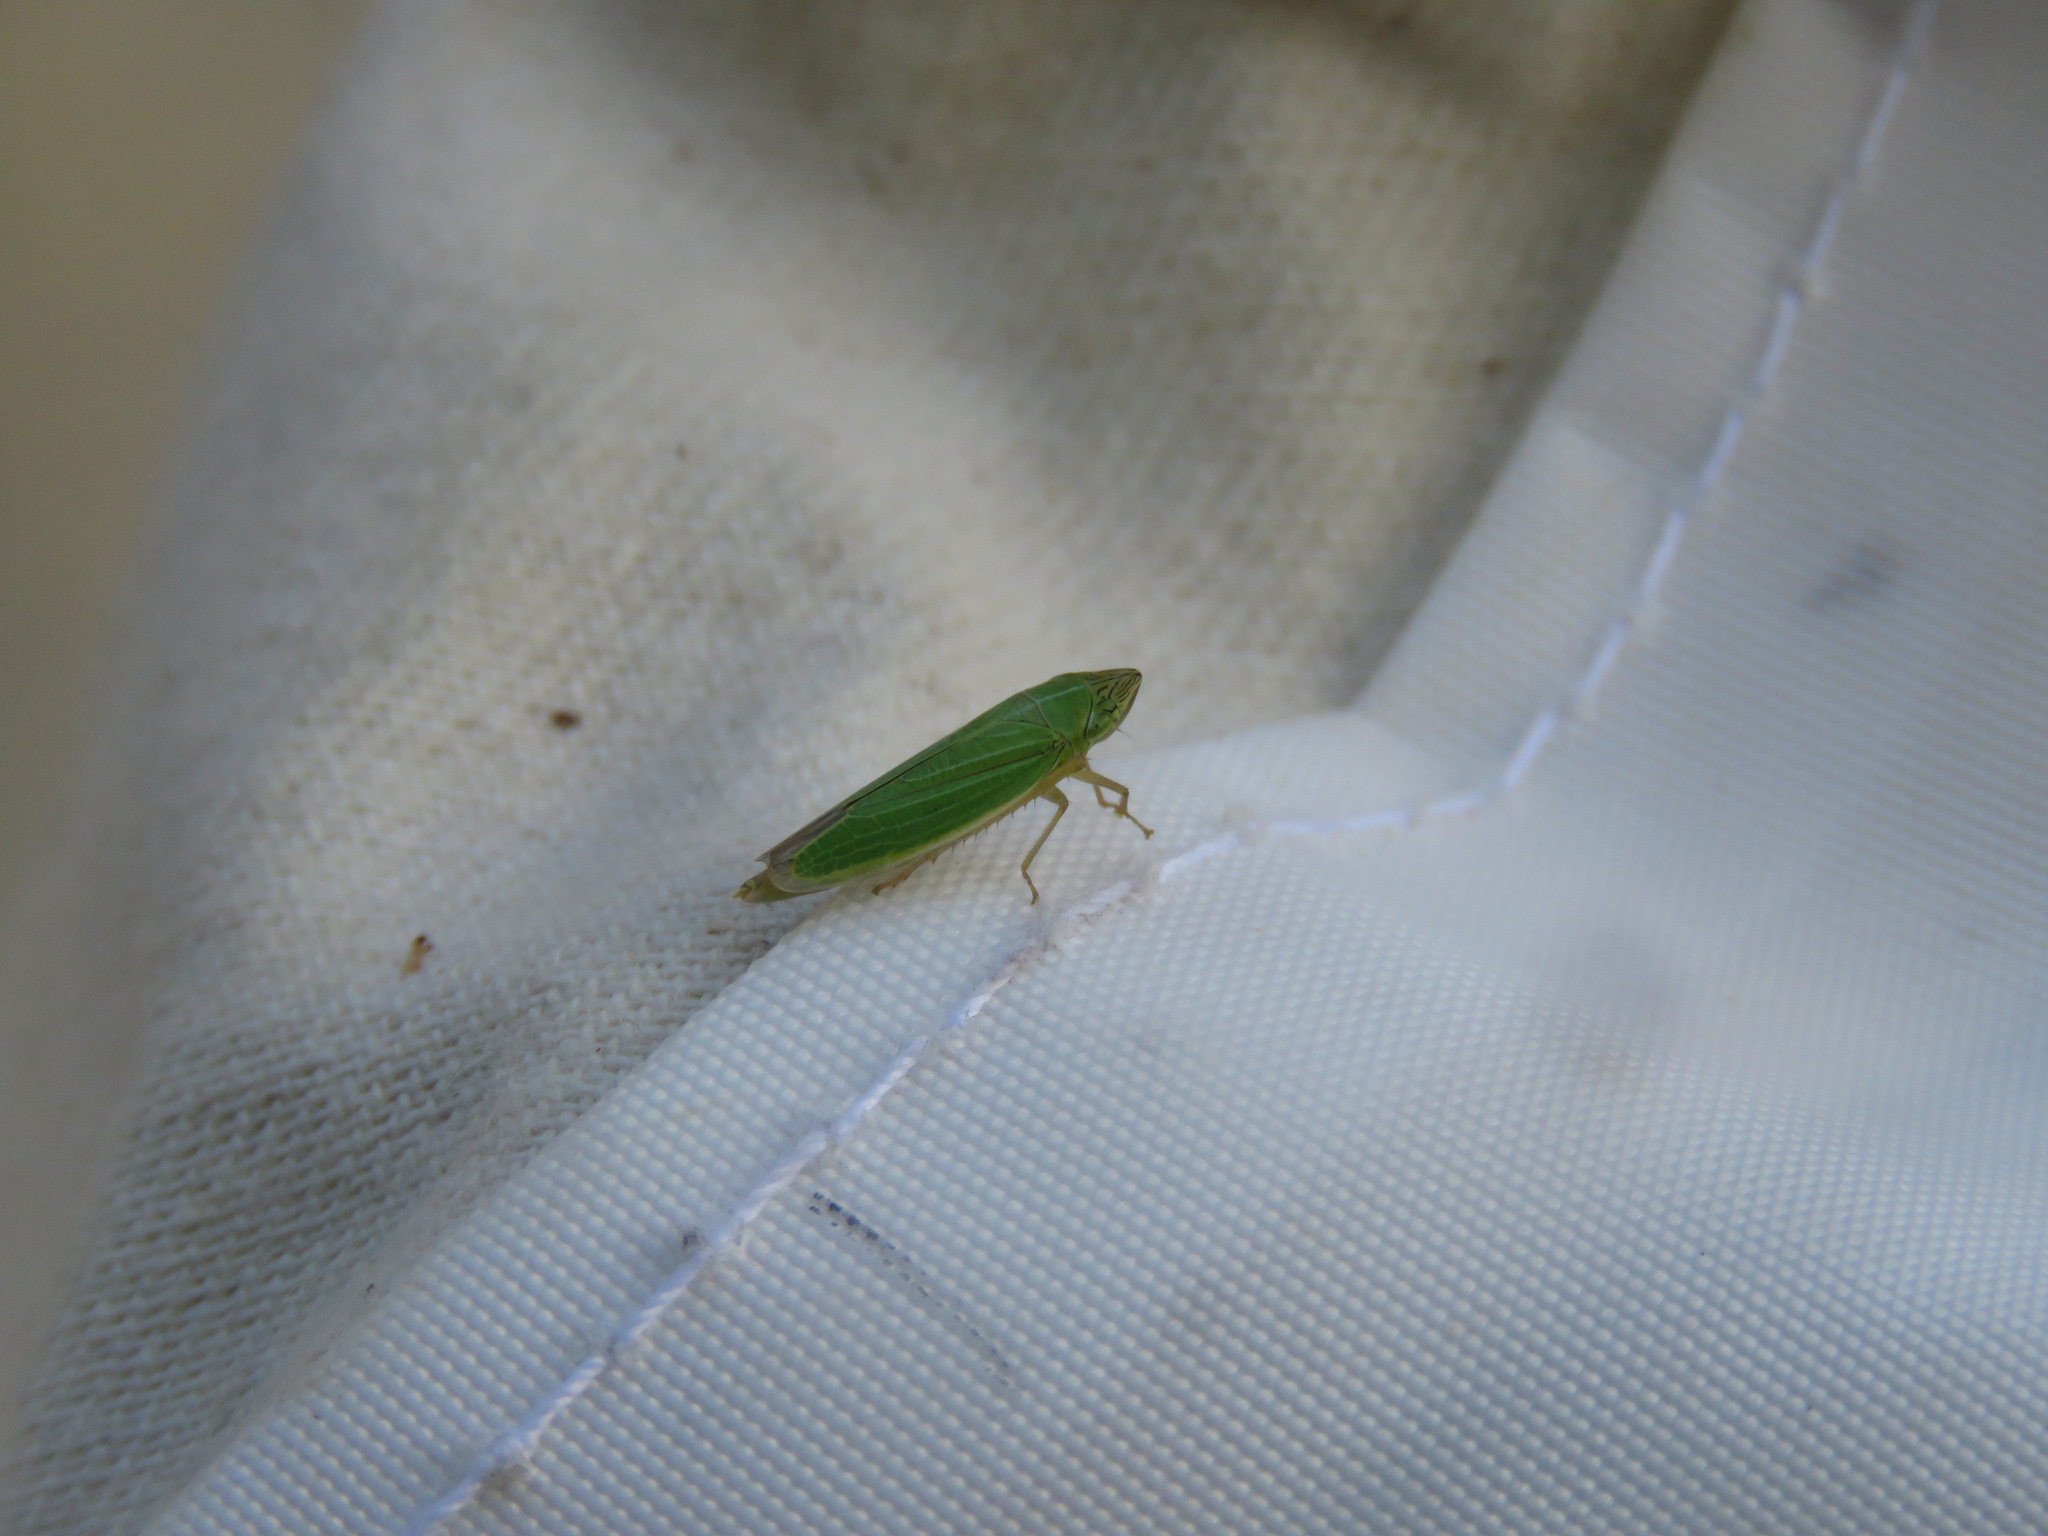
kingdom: Animalia
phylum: Arthropoda
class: Insecta
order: Hemiptera
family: Cicadellidae
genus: Draeculacephala
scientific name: Draeculacephala angulifera
